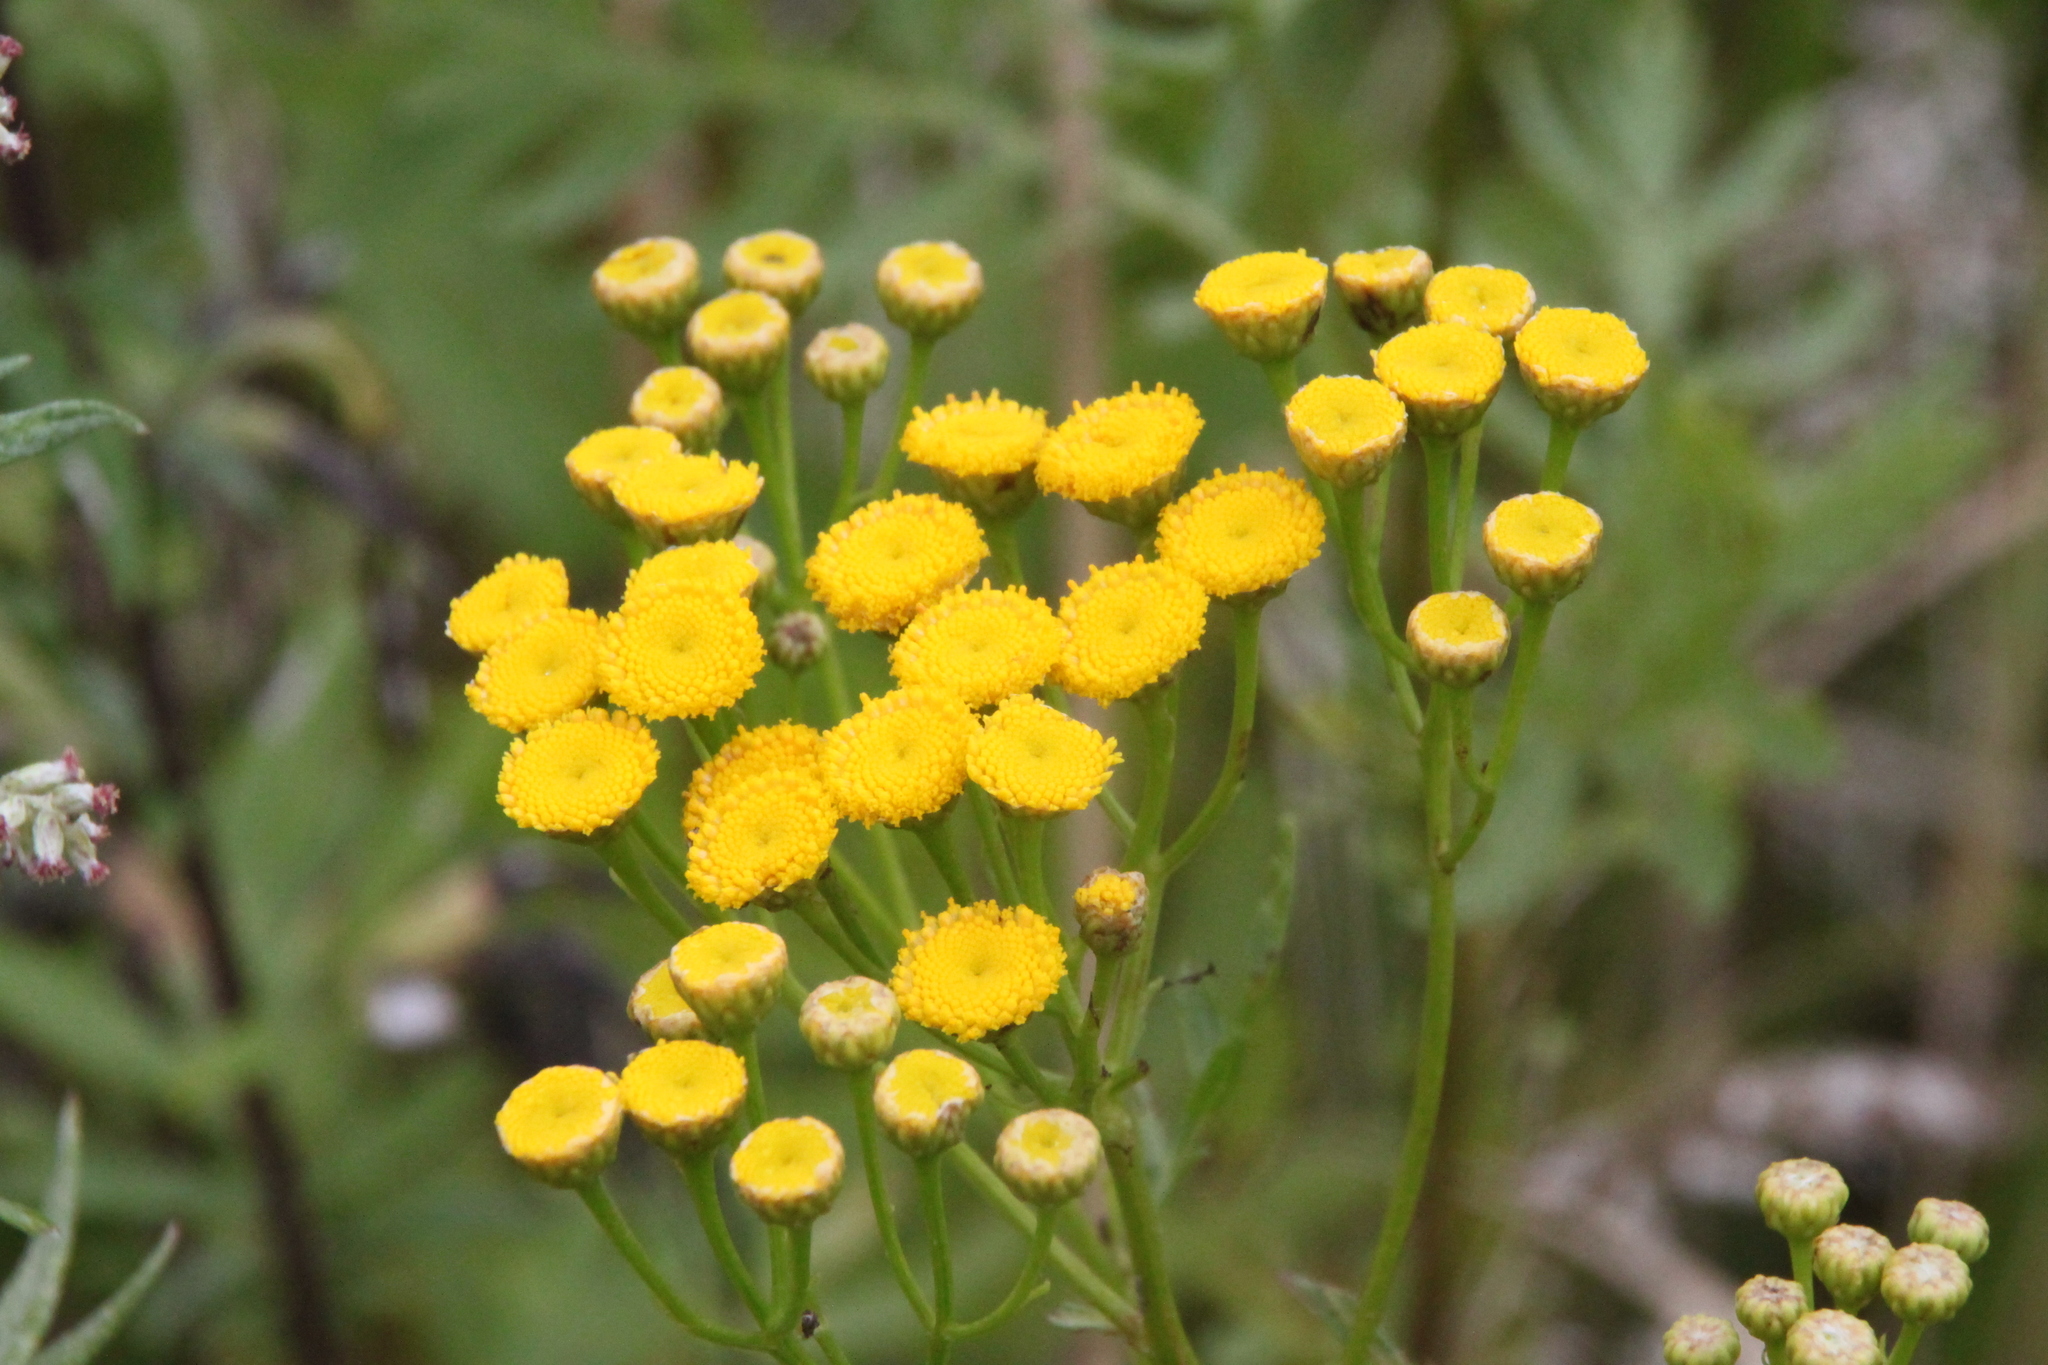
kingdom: Plantae
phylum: Tracheophyta
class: Magnoliopsida
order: Asterales
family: Asteraceae
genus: Tanacetum
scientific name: Tanacetum vulgare
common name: Common tansy
